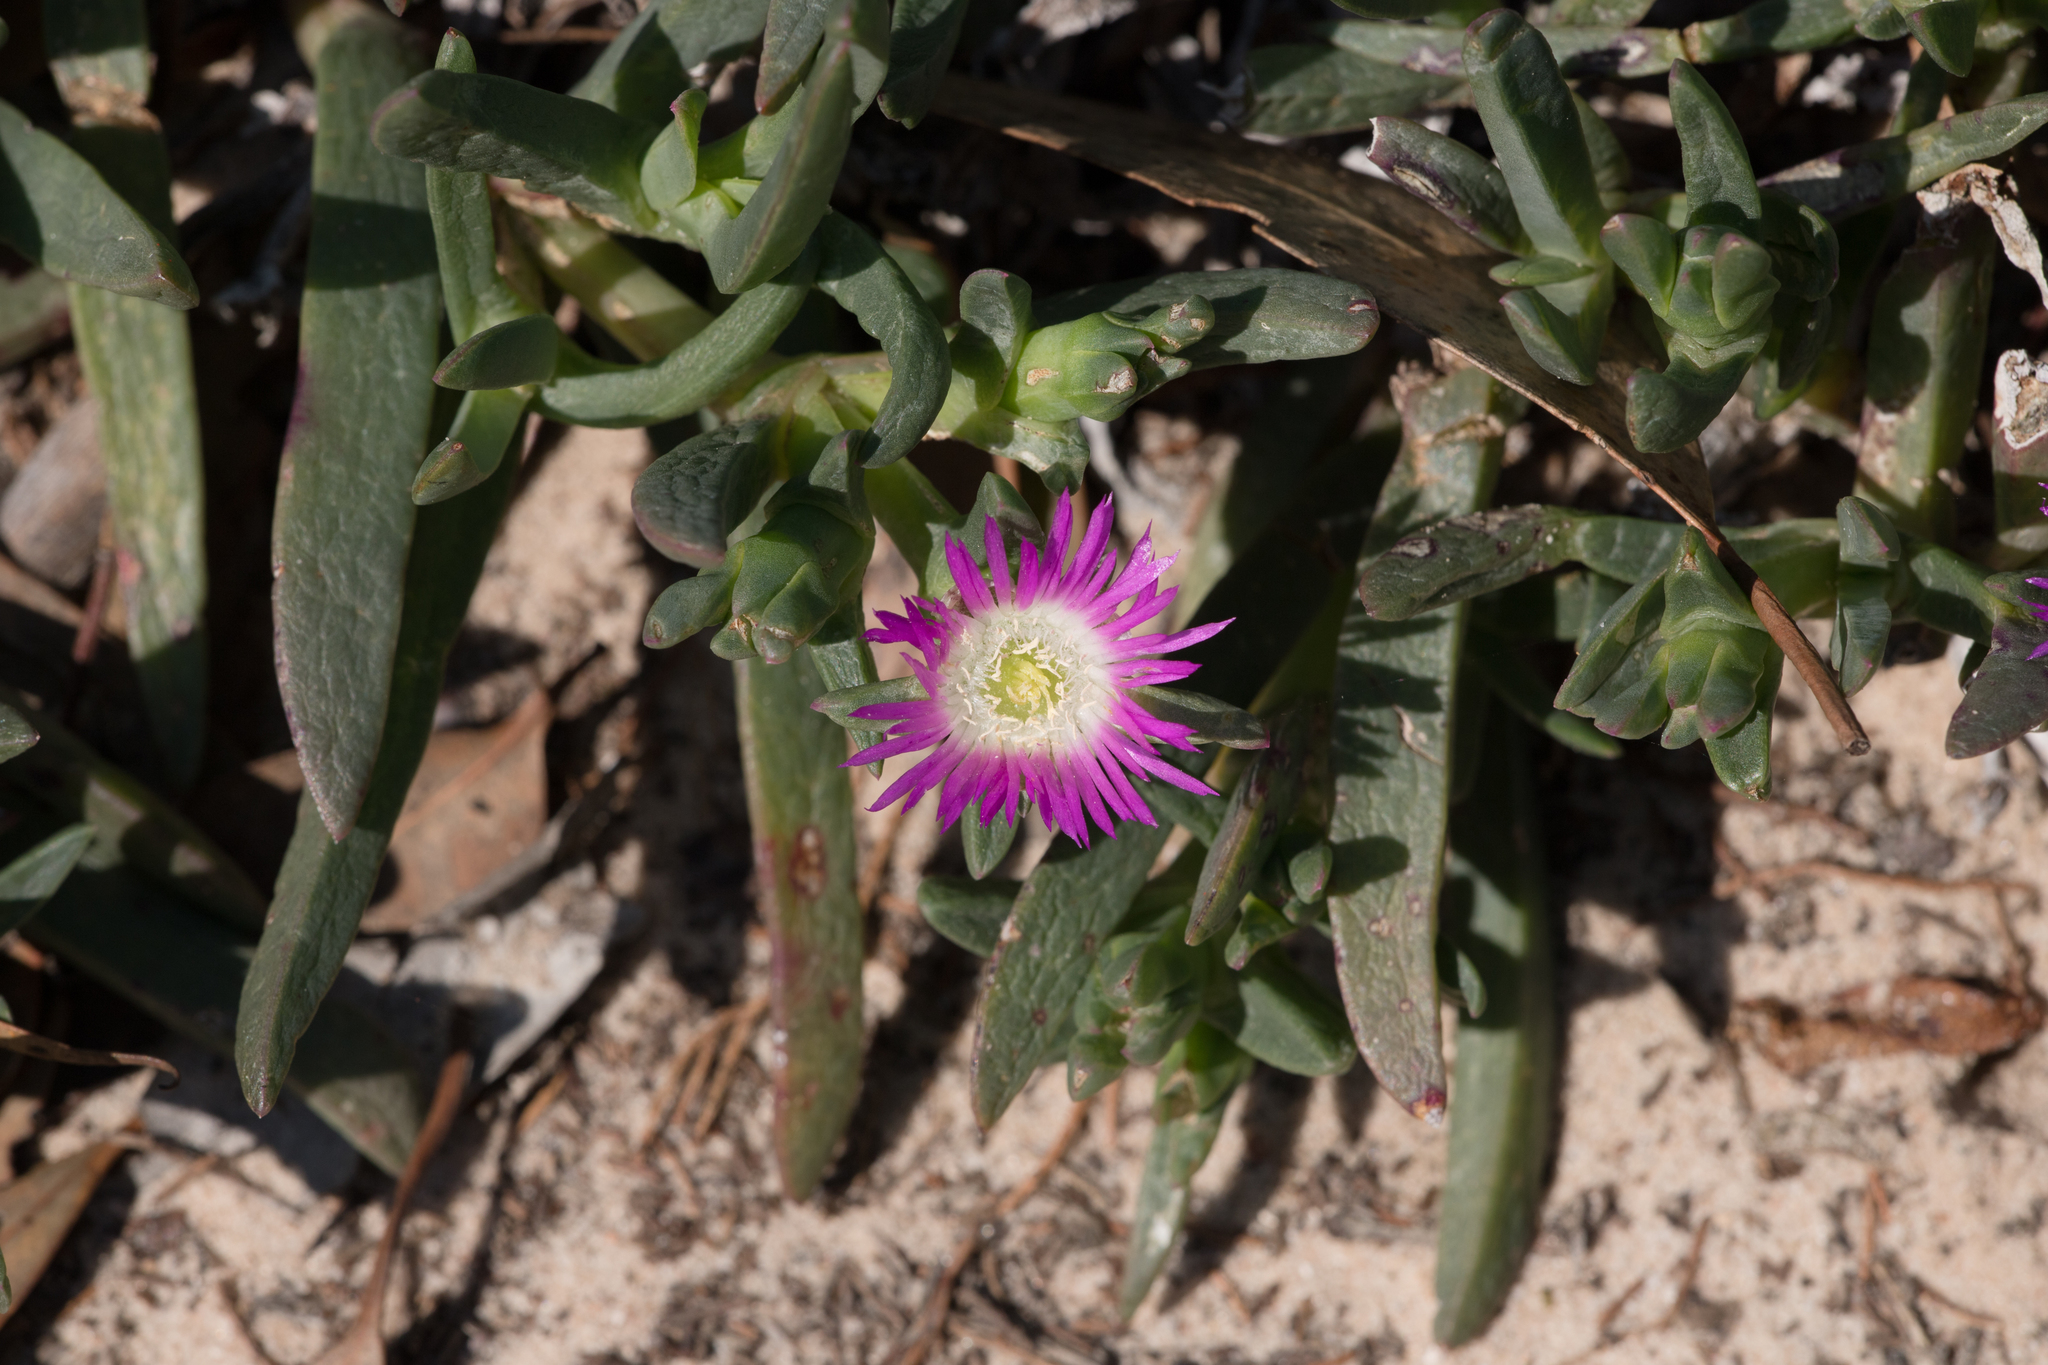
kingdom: Plantae
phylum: Tracheophyta
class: Magnoliopsida
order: Caryophyllales
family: Aizoaceae
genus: Carpobrotus
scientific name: Carpobrotus modestus
